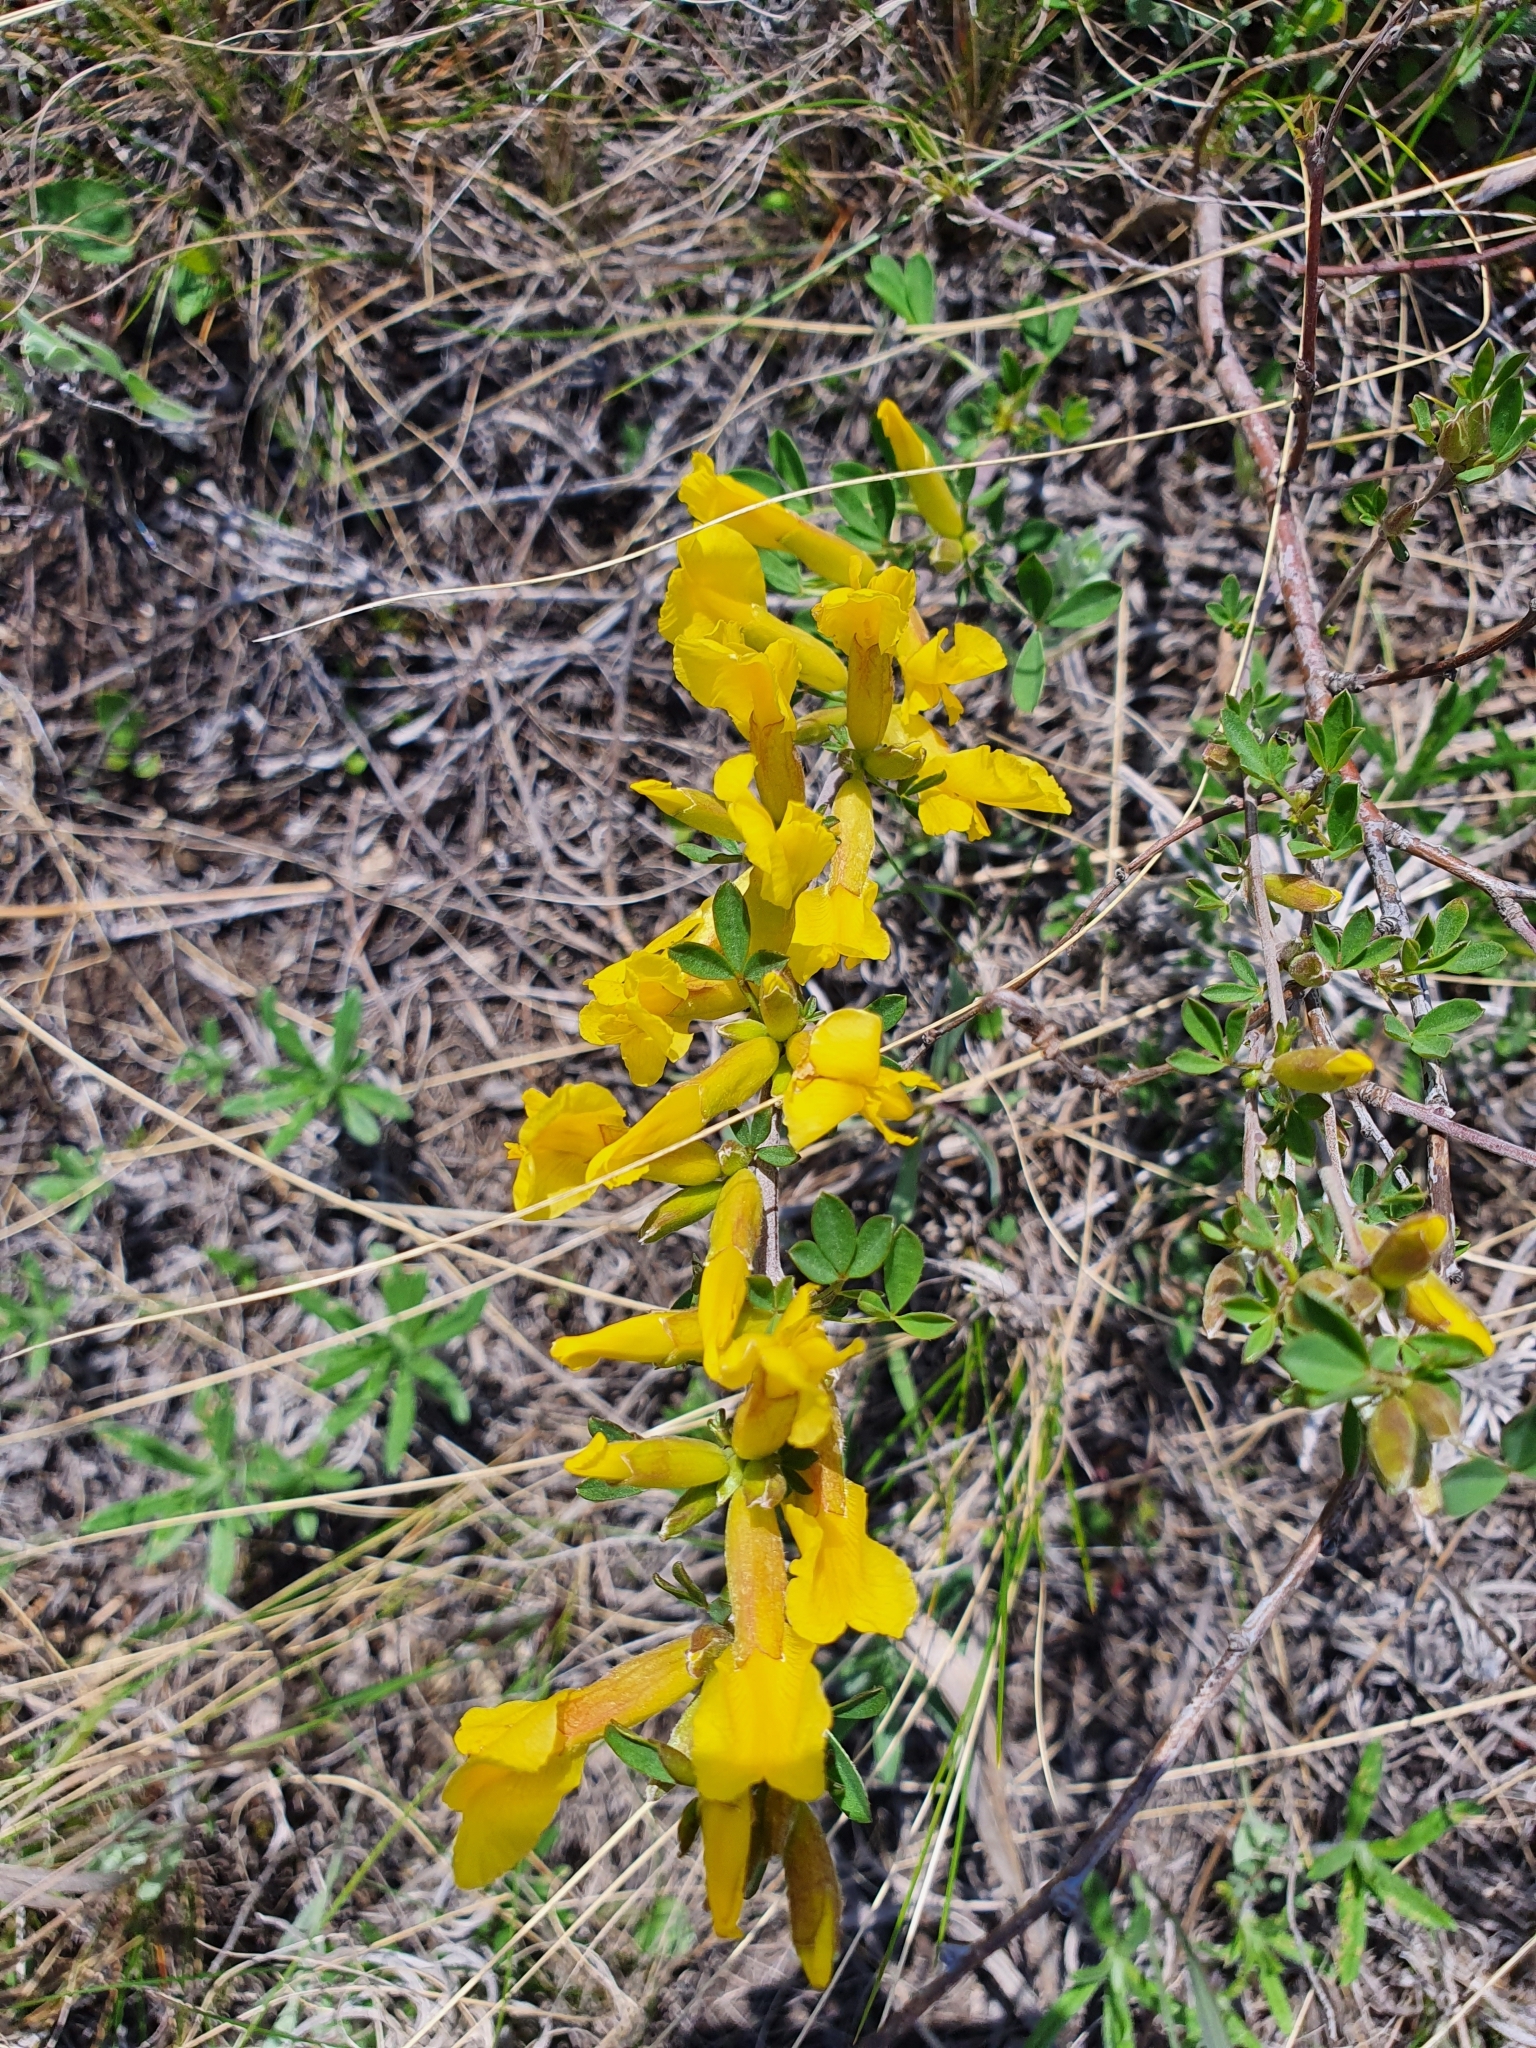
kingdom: Plantae
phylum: Tracheophyta
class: Magnoliopsida
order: Fabales
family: Fabaceae
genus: Caragana
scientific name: Caragana frutex
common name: Russian peashrub
